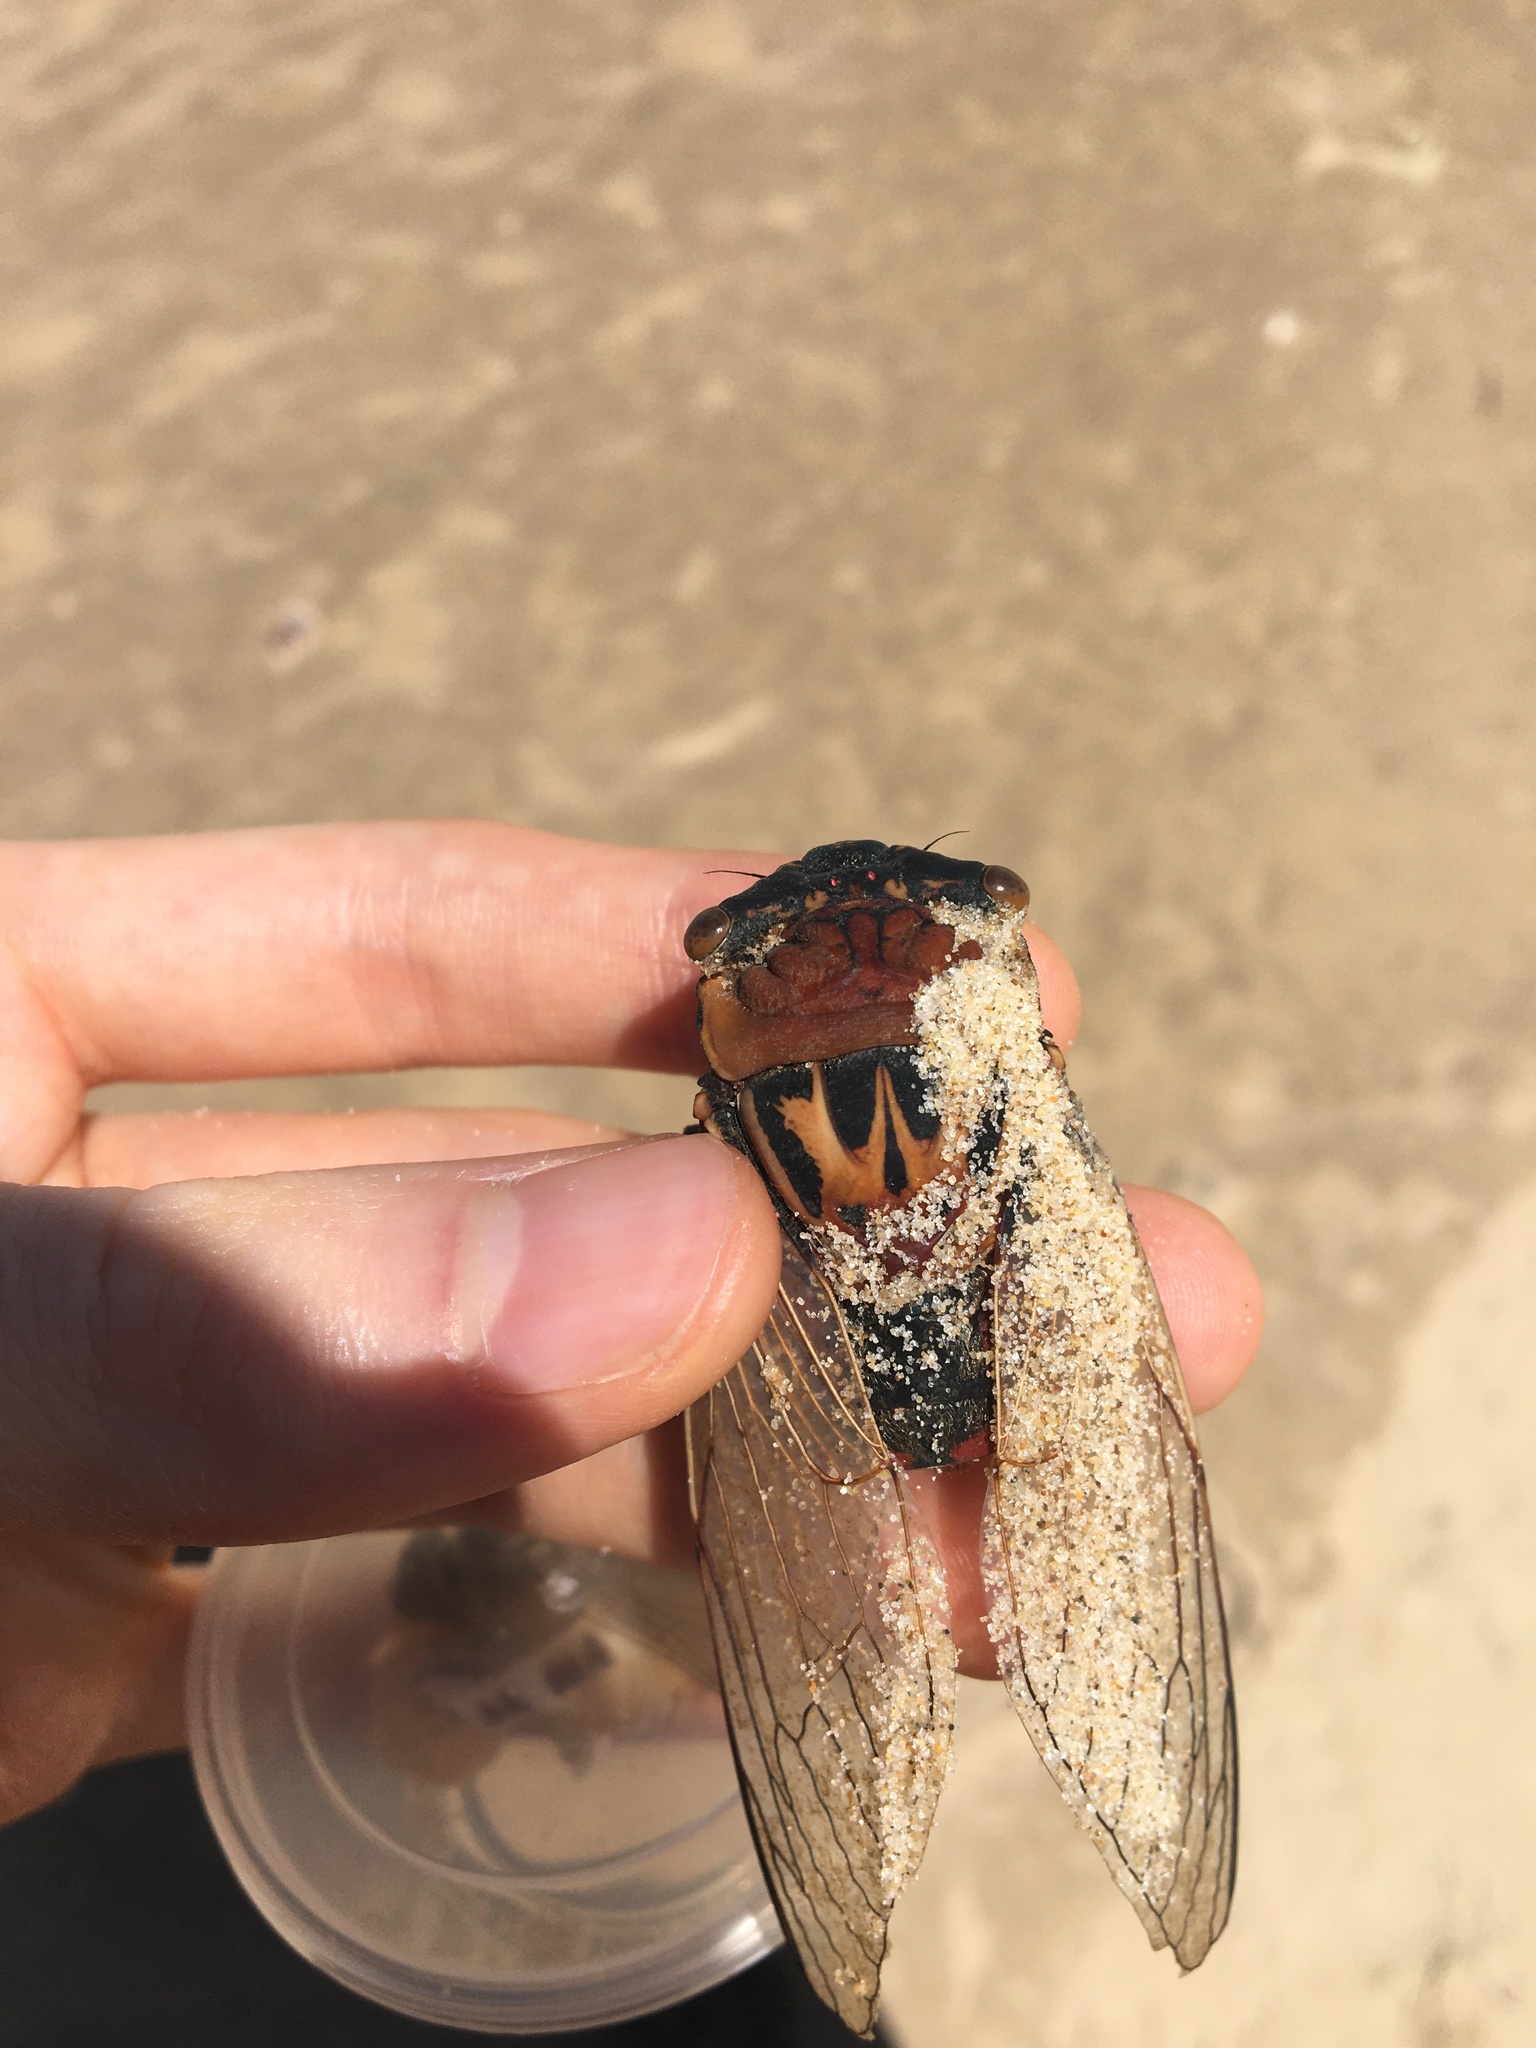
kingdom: Animalia
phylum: Arthropoda
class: Insecta
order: Hemiptera
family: Cicadidae
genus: Thopha
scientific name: Thopha saccata
